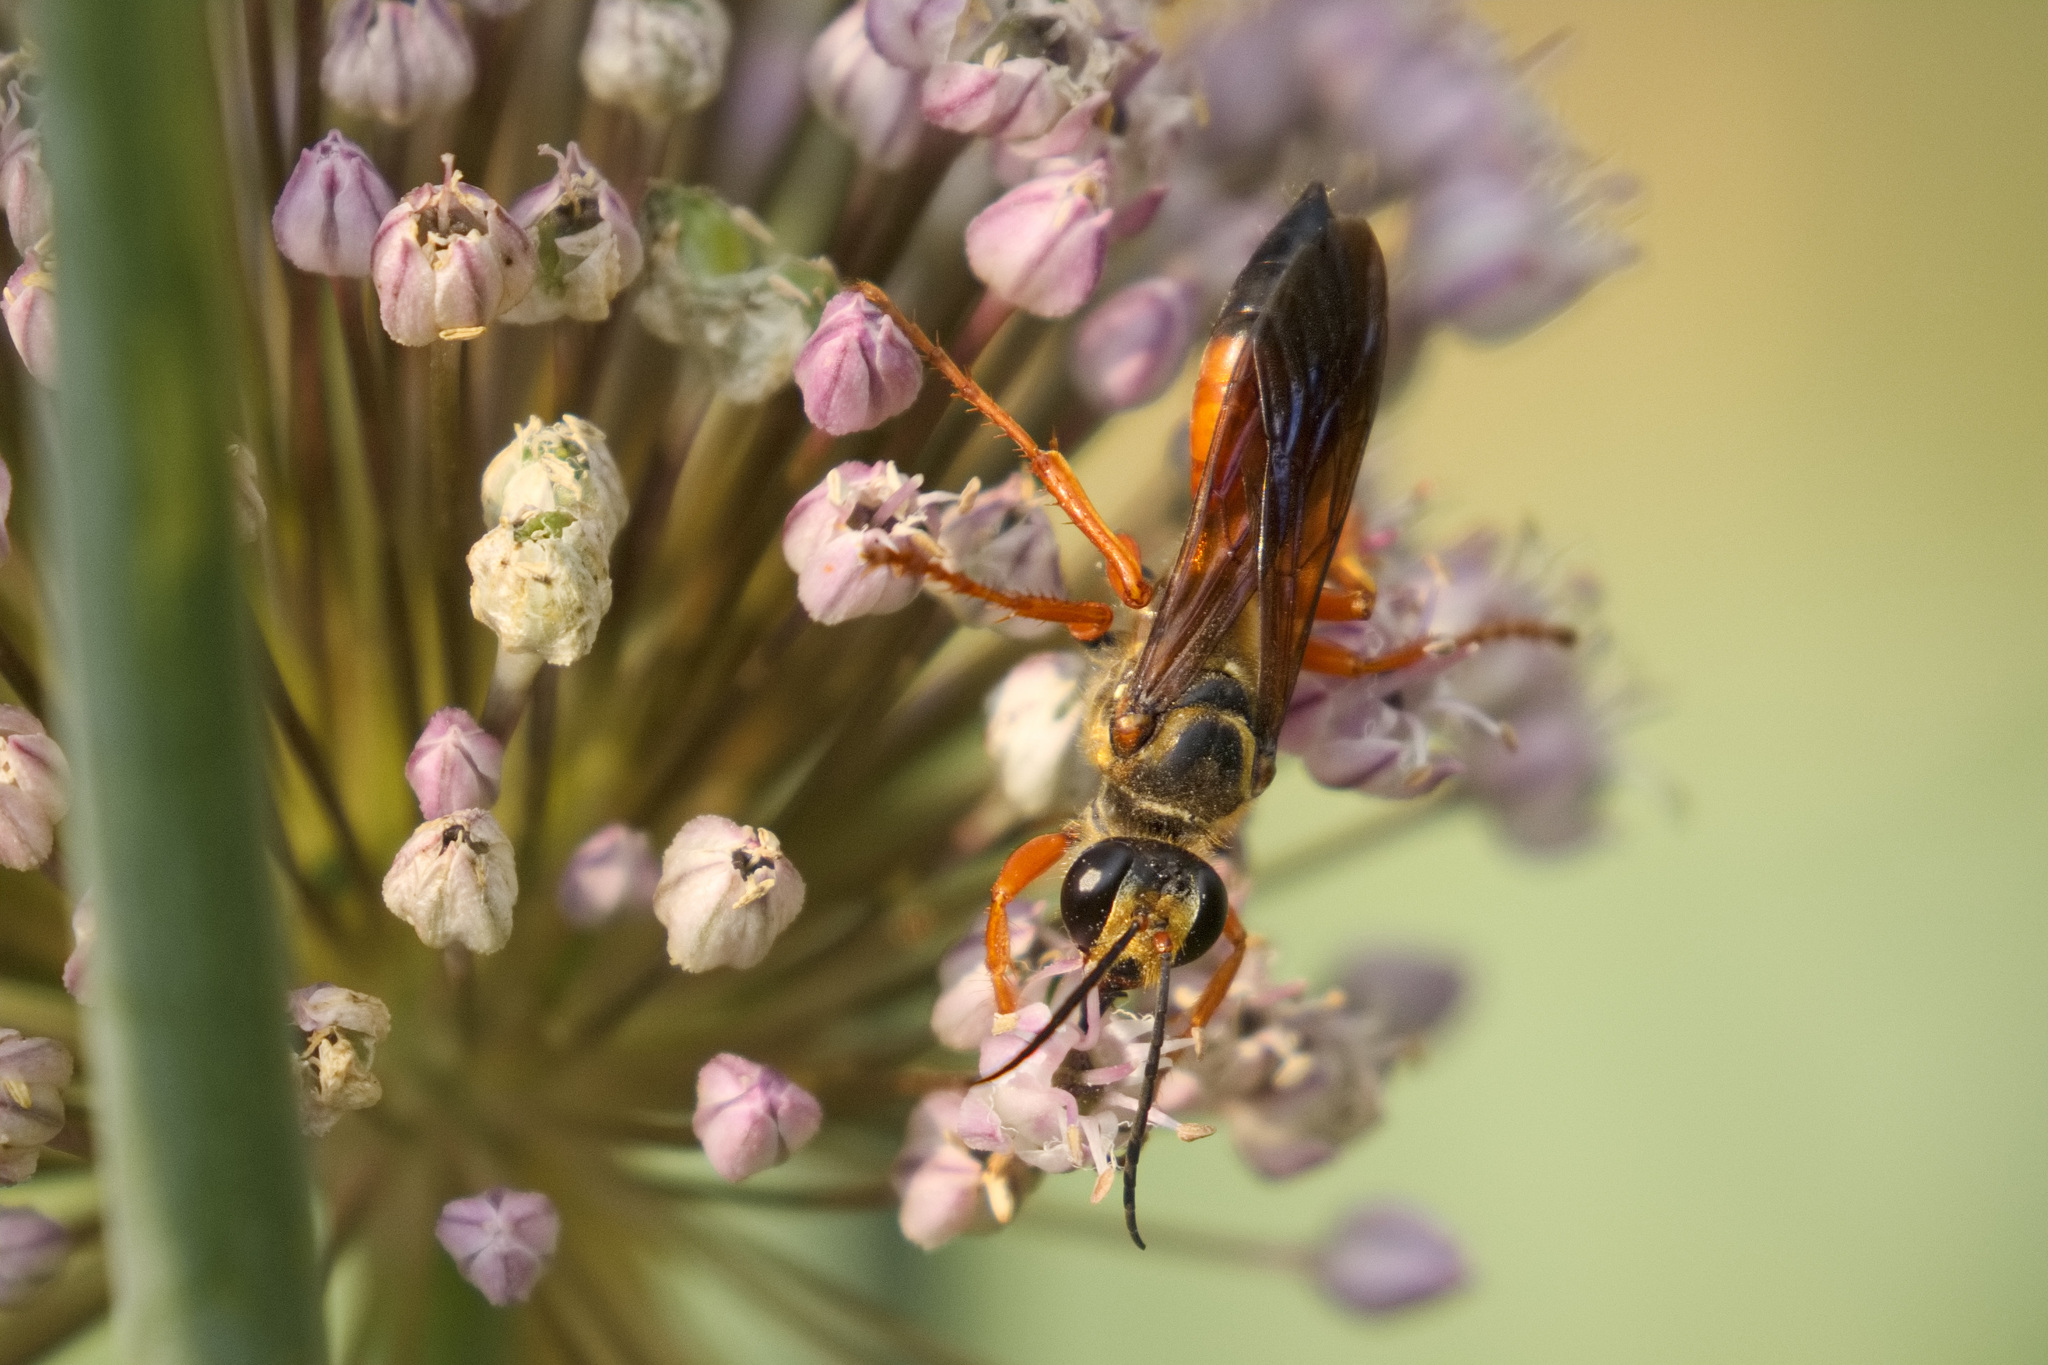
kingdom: Animalia
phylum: Arthropoda
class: Insecta
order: Hymenoptera
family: Sphecidae
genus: Sphex
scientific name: Sphex ichneumoneus
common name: Great golden digger wasp
